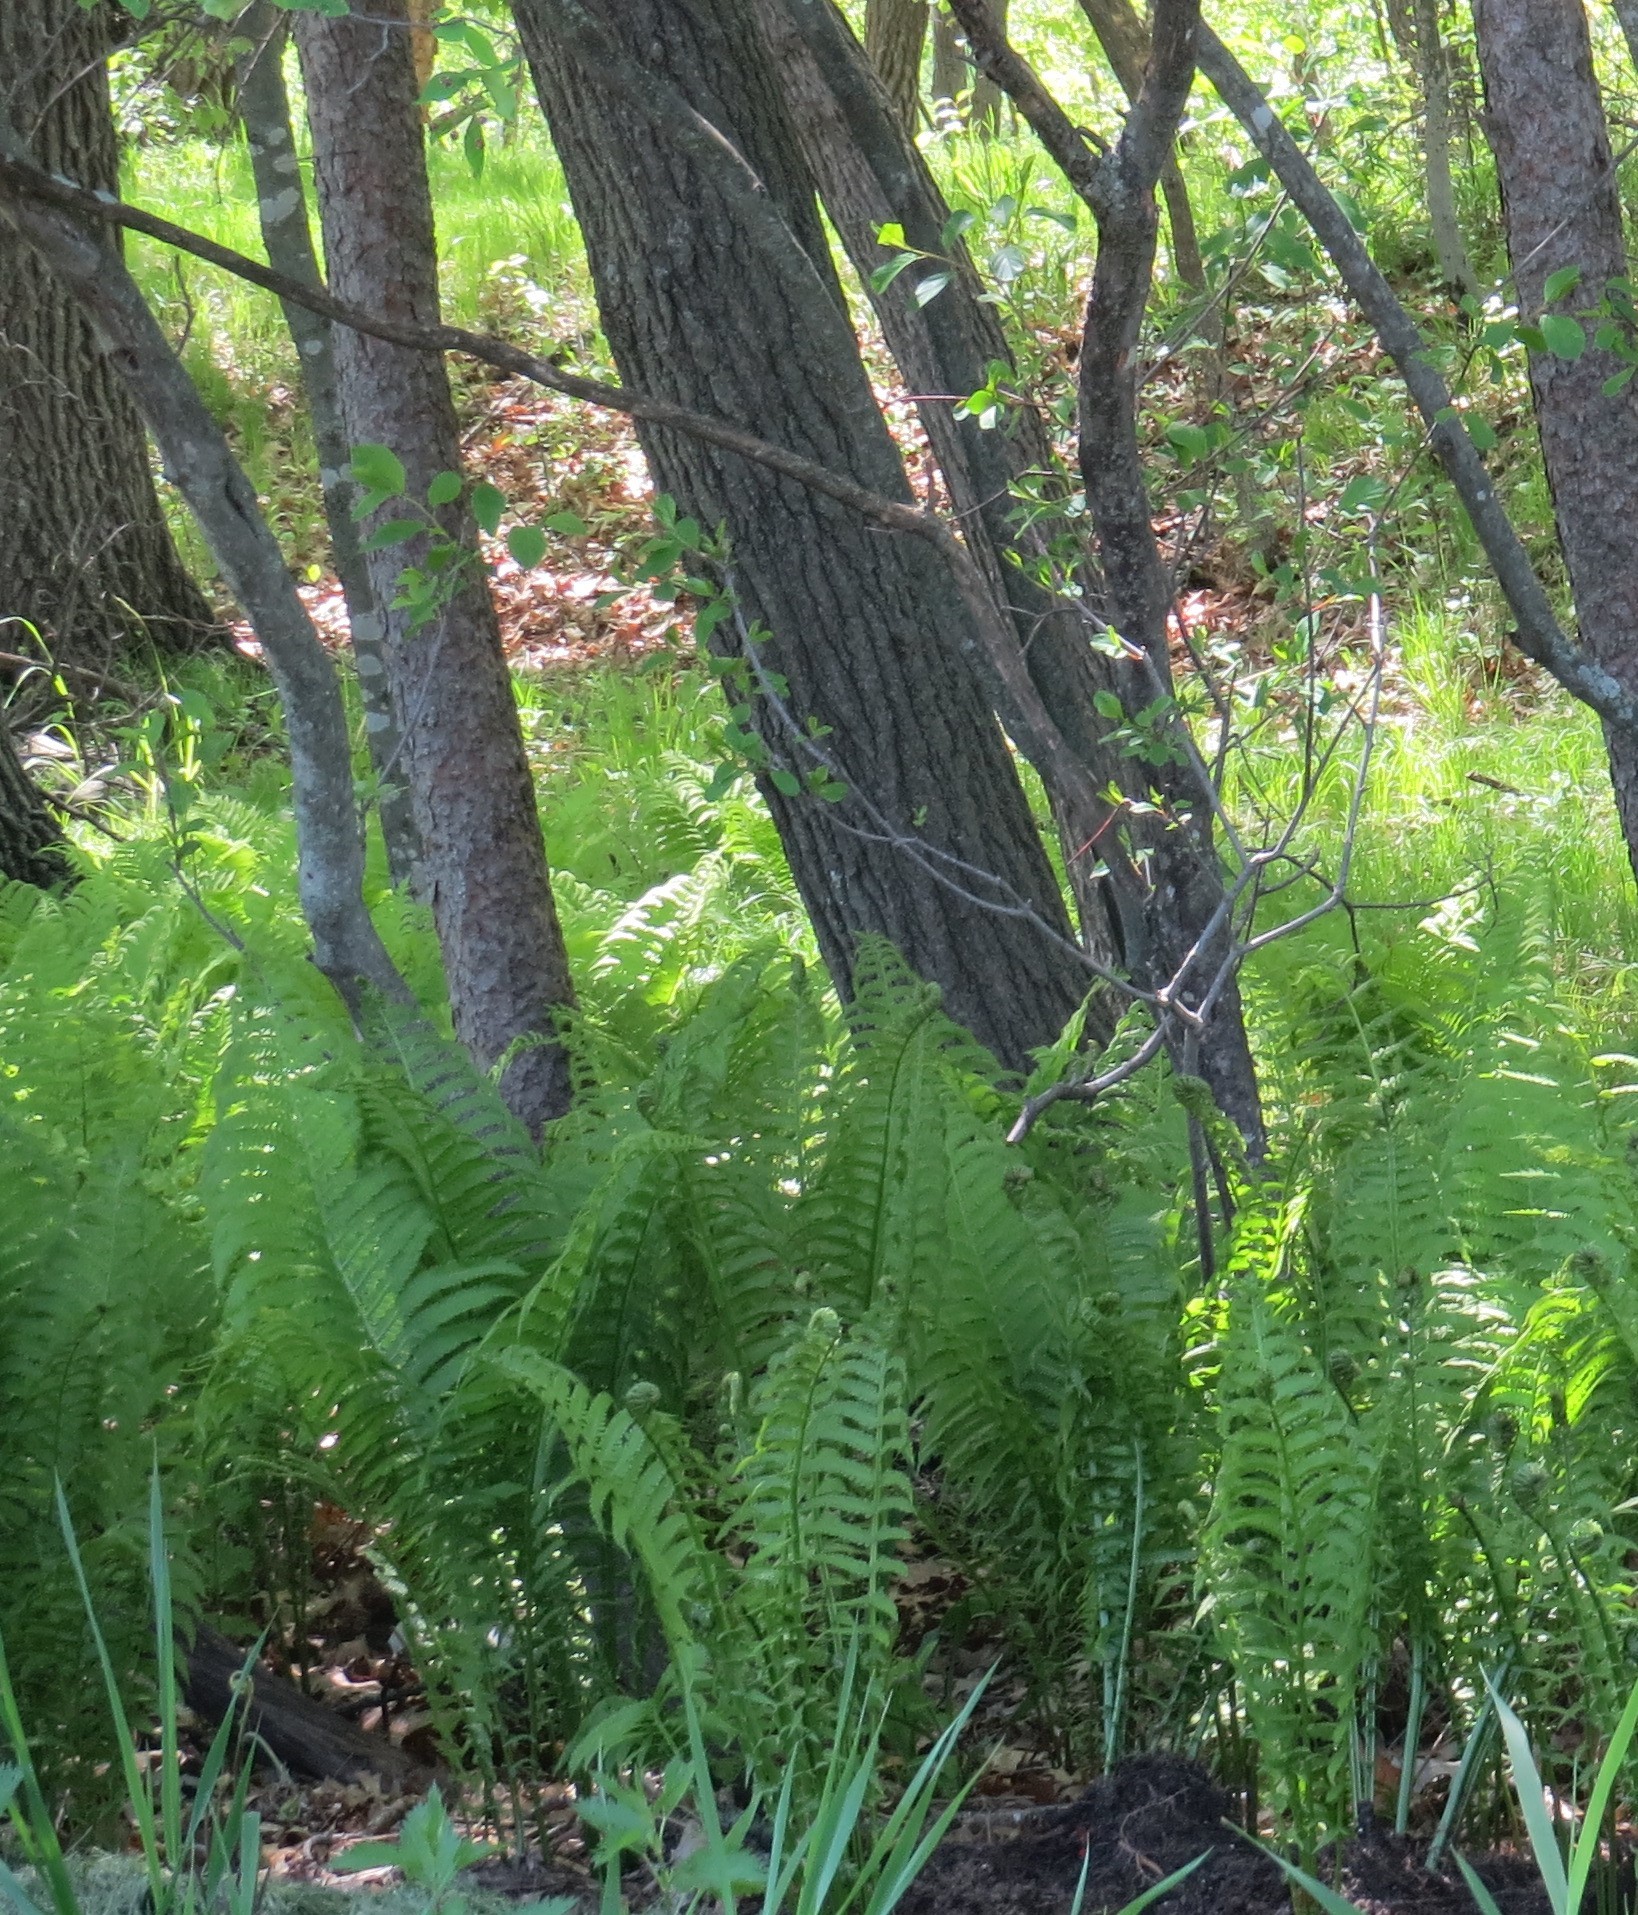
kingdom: Plantae
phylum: Tracheophyta
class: Polypodiopsida
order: Polypodiales
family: Onocleaceae
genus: Matteuccia
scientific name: Matteuccia struthiopteris
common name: Ostrich fern
